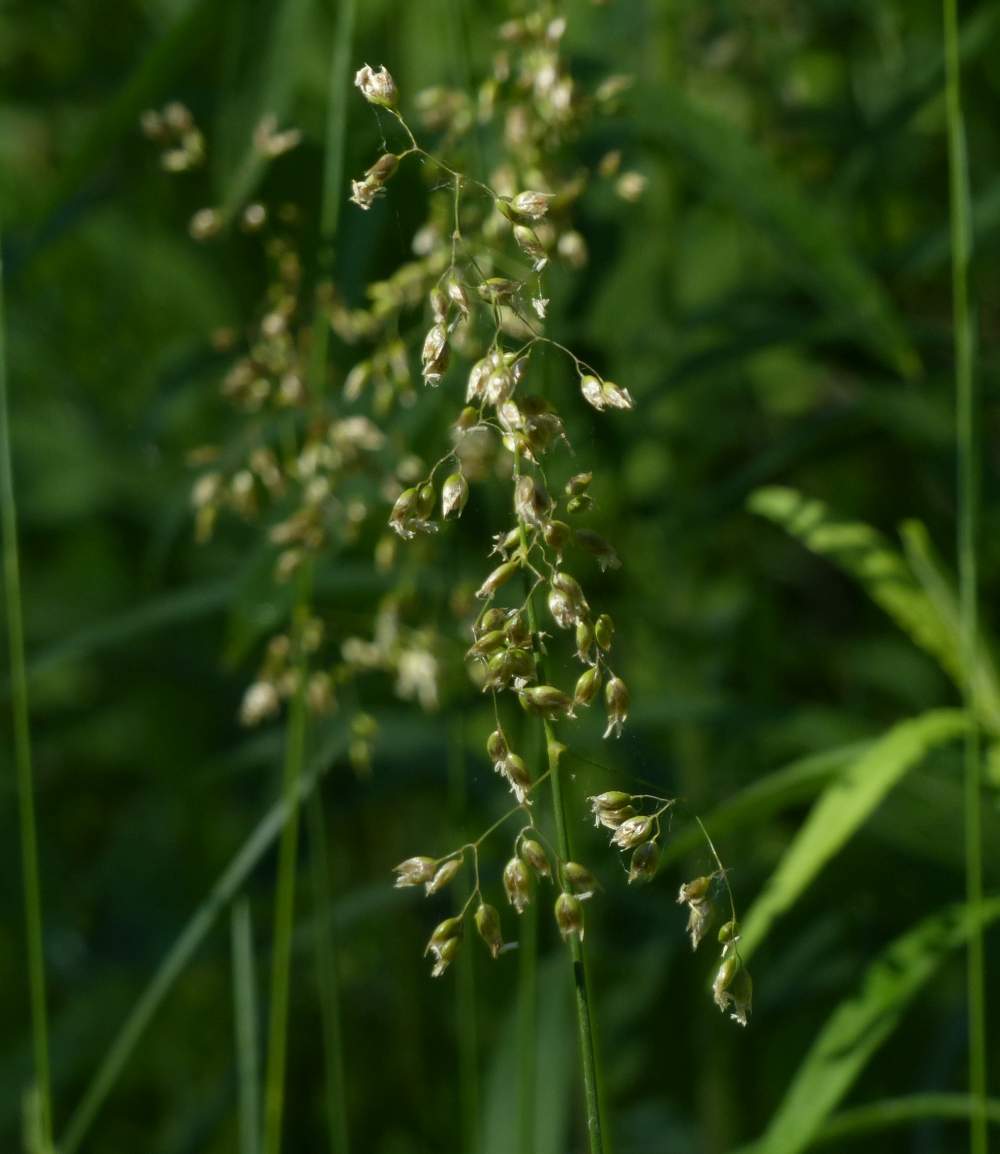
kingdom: Plantae
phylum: Tracheophyta
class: Liliopsida
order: Poales
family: Poaceae
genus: Anthoxanthum
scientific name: Anthoxanthum nitens
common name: Holy grass
